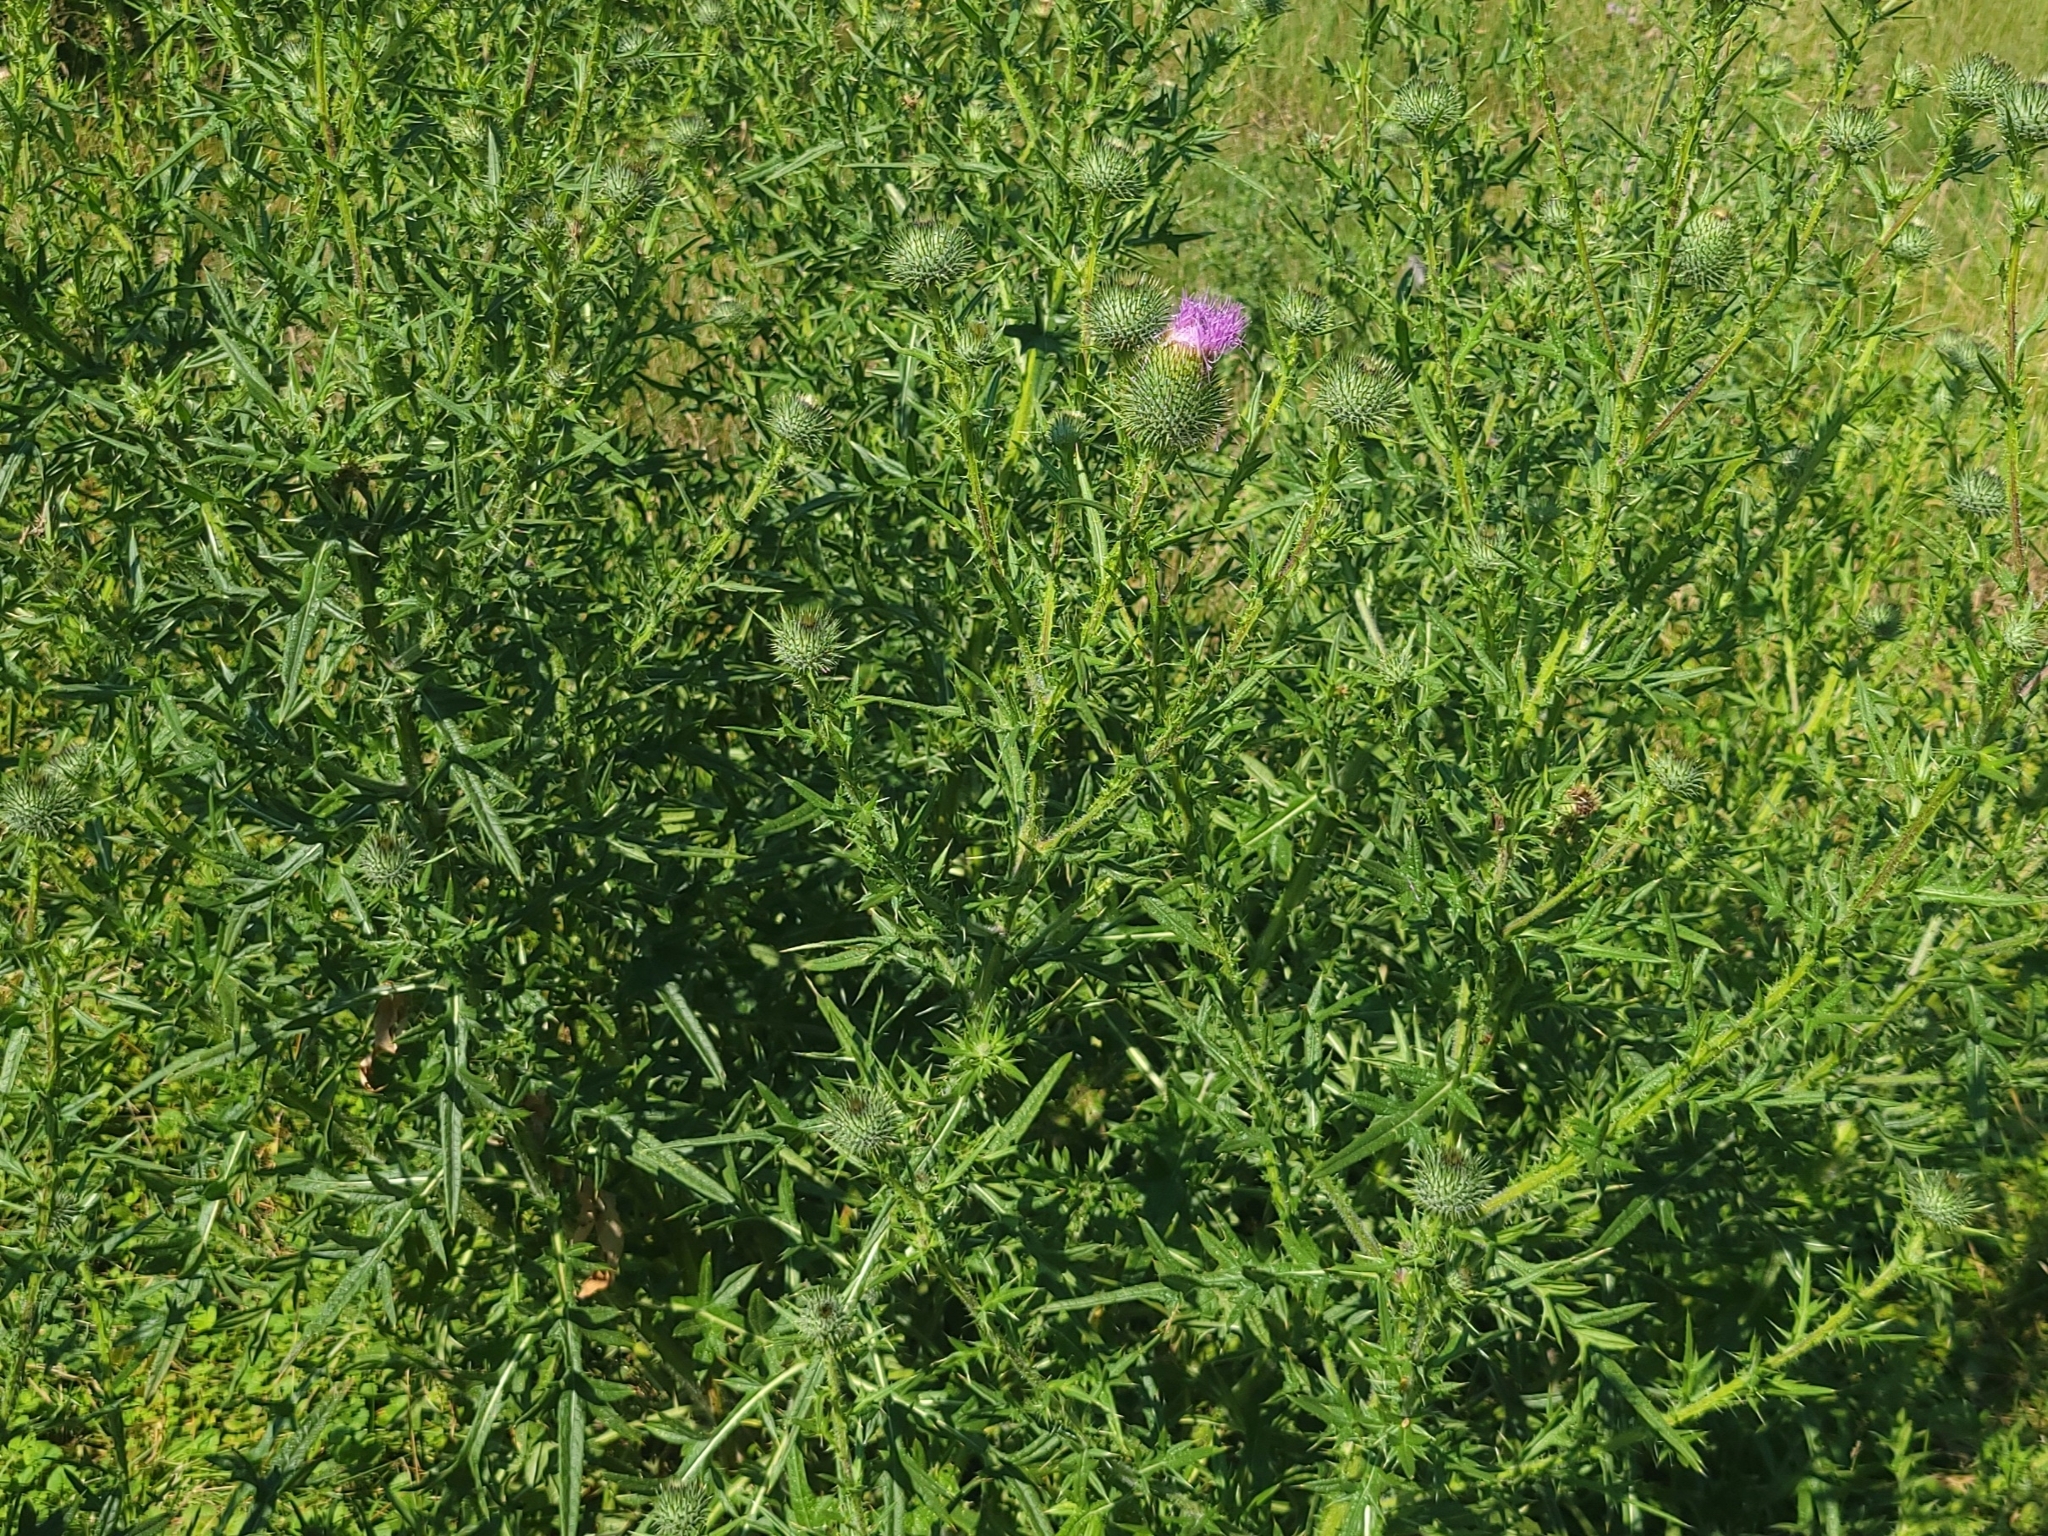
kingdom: Plantae
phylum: Tracheophyta
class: Magnoliopsida
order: Asterales
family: Asteraceae
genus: Cirsium
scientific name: Cirsium vulgare
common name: Bull thistle
